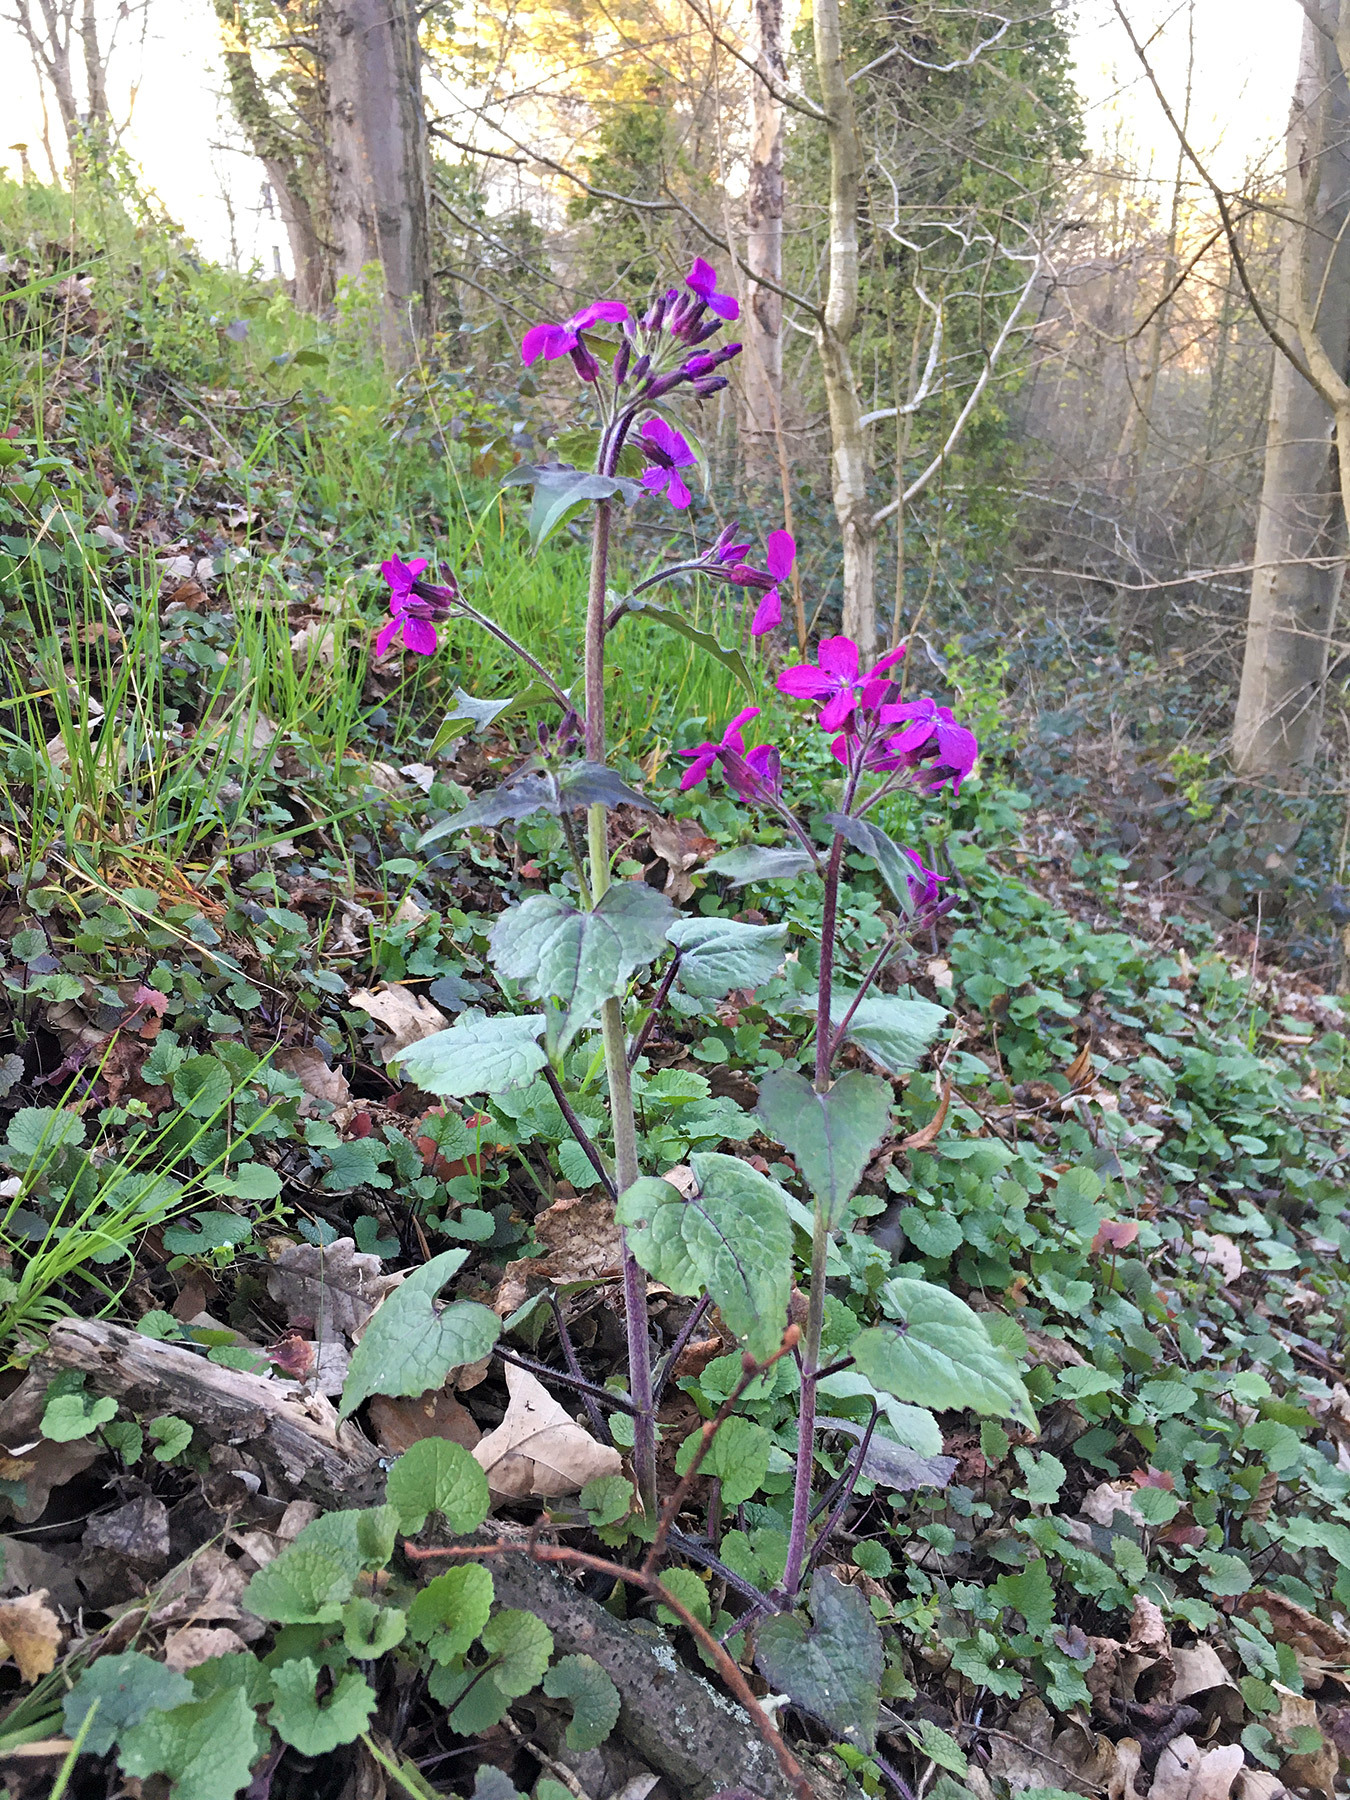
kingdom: Plantae
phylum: Tracheophyta
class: Magnoliopsida
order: Brassicales
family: Brassicaceae
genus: Lunaria
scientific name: Lunaria annua
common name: Honesty
